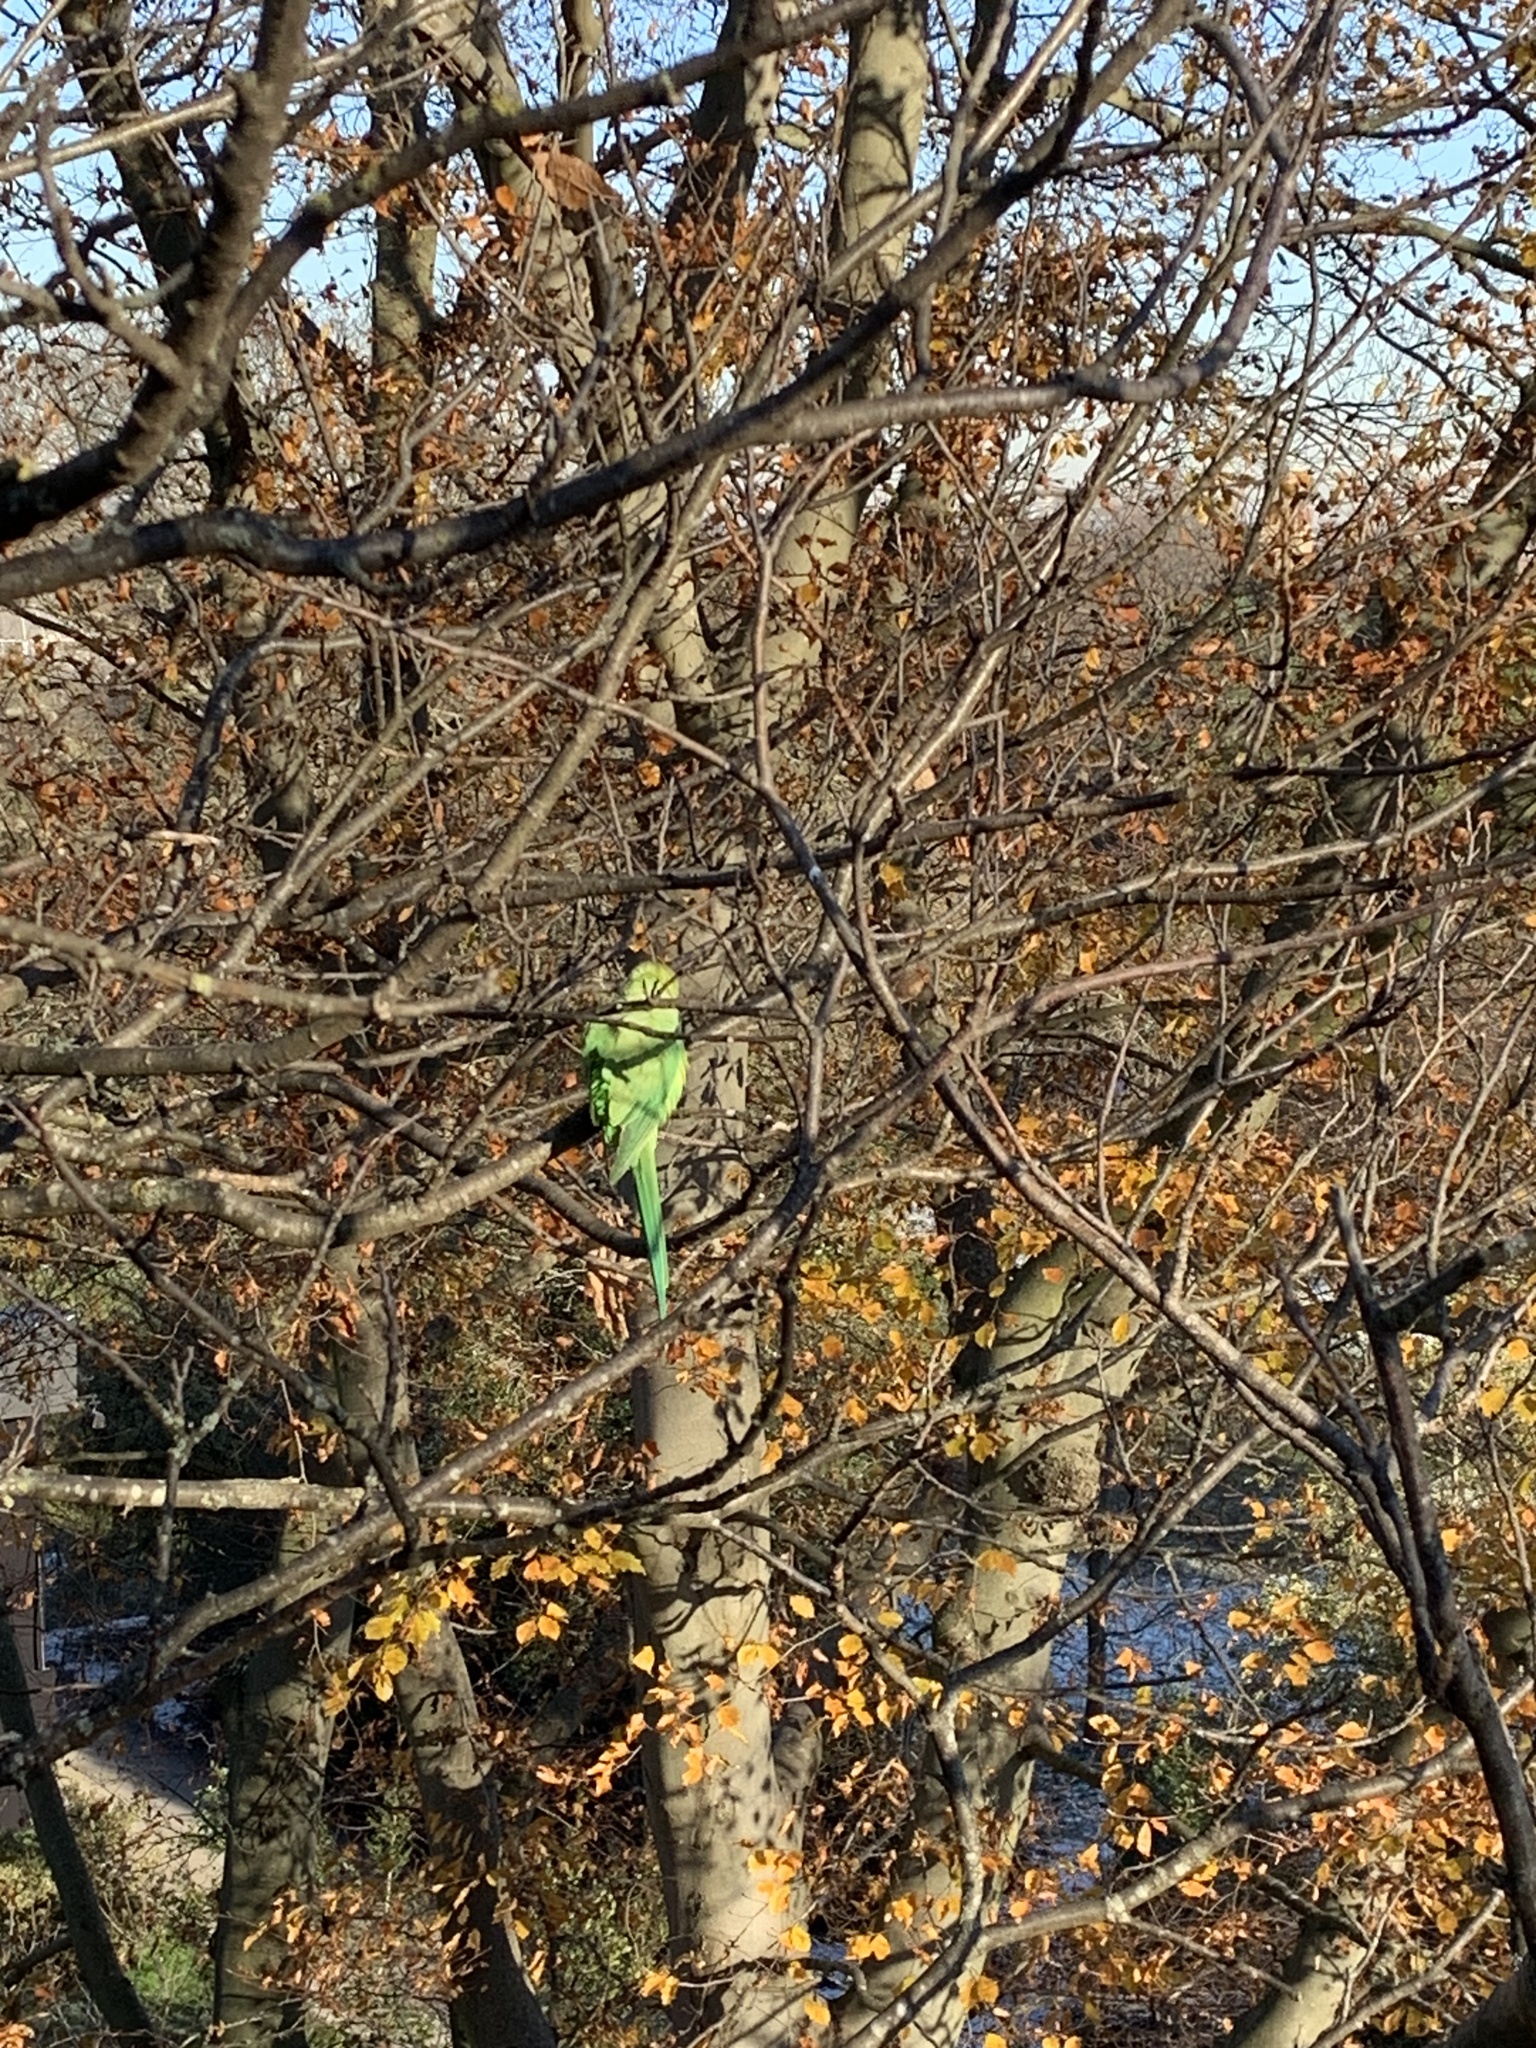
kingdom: Animalia
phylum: Chordata
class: Aves
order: Psittaciformes
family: Psittacidae
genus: Psittacula
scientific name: Psittacula krameri
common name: Rose-ringed parakeet
